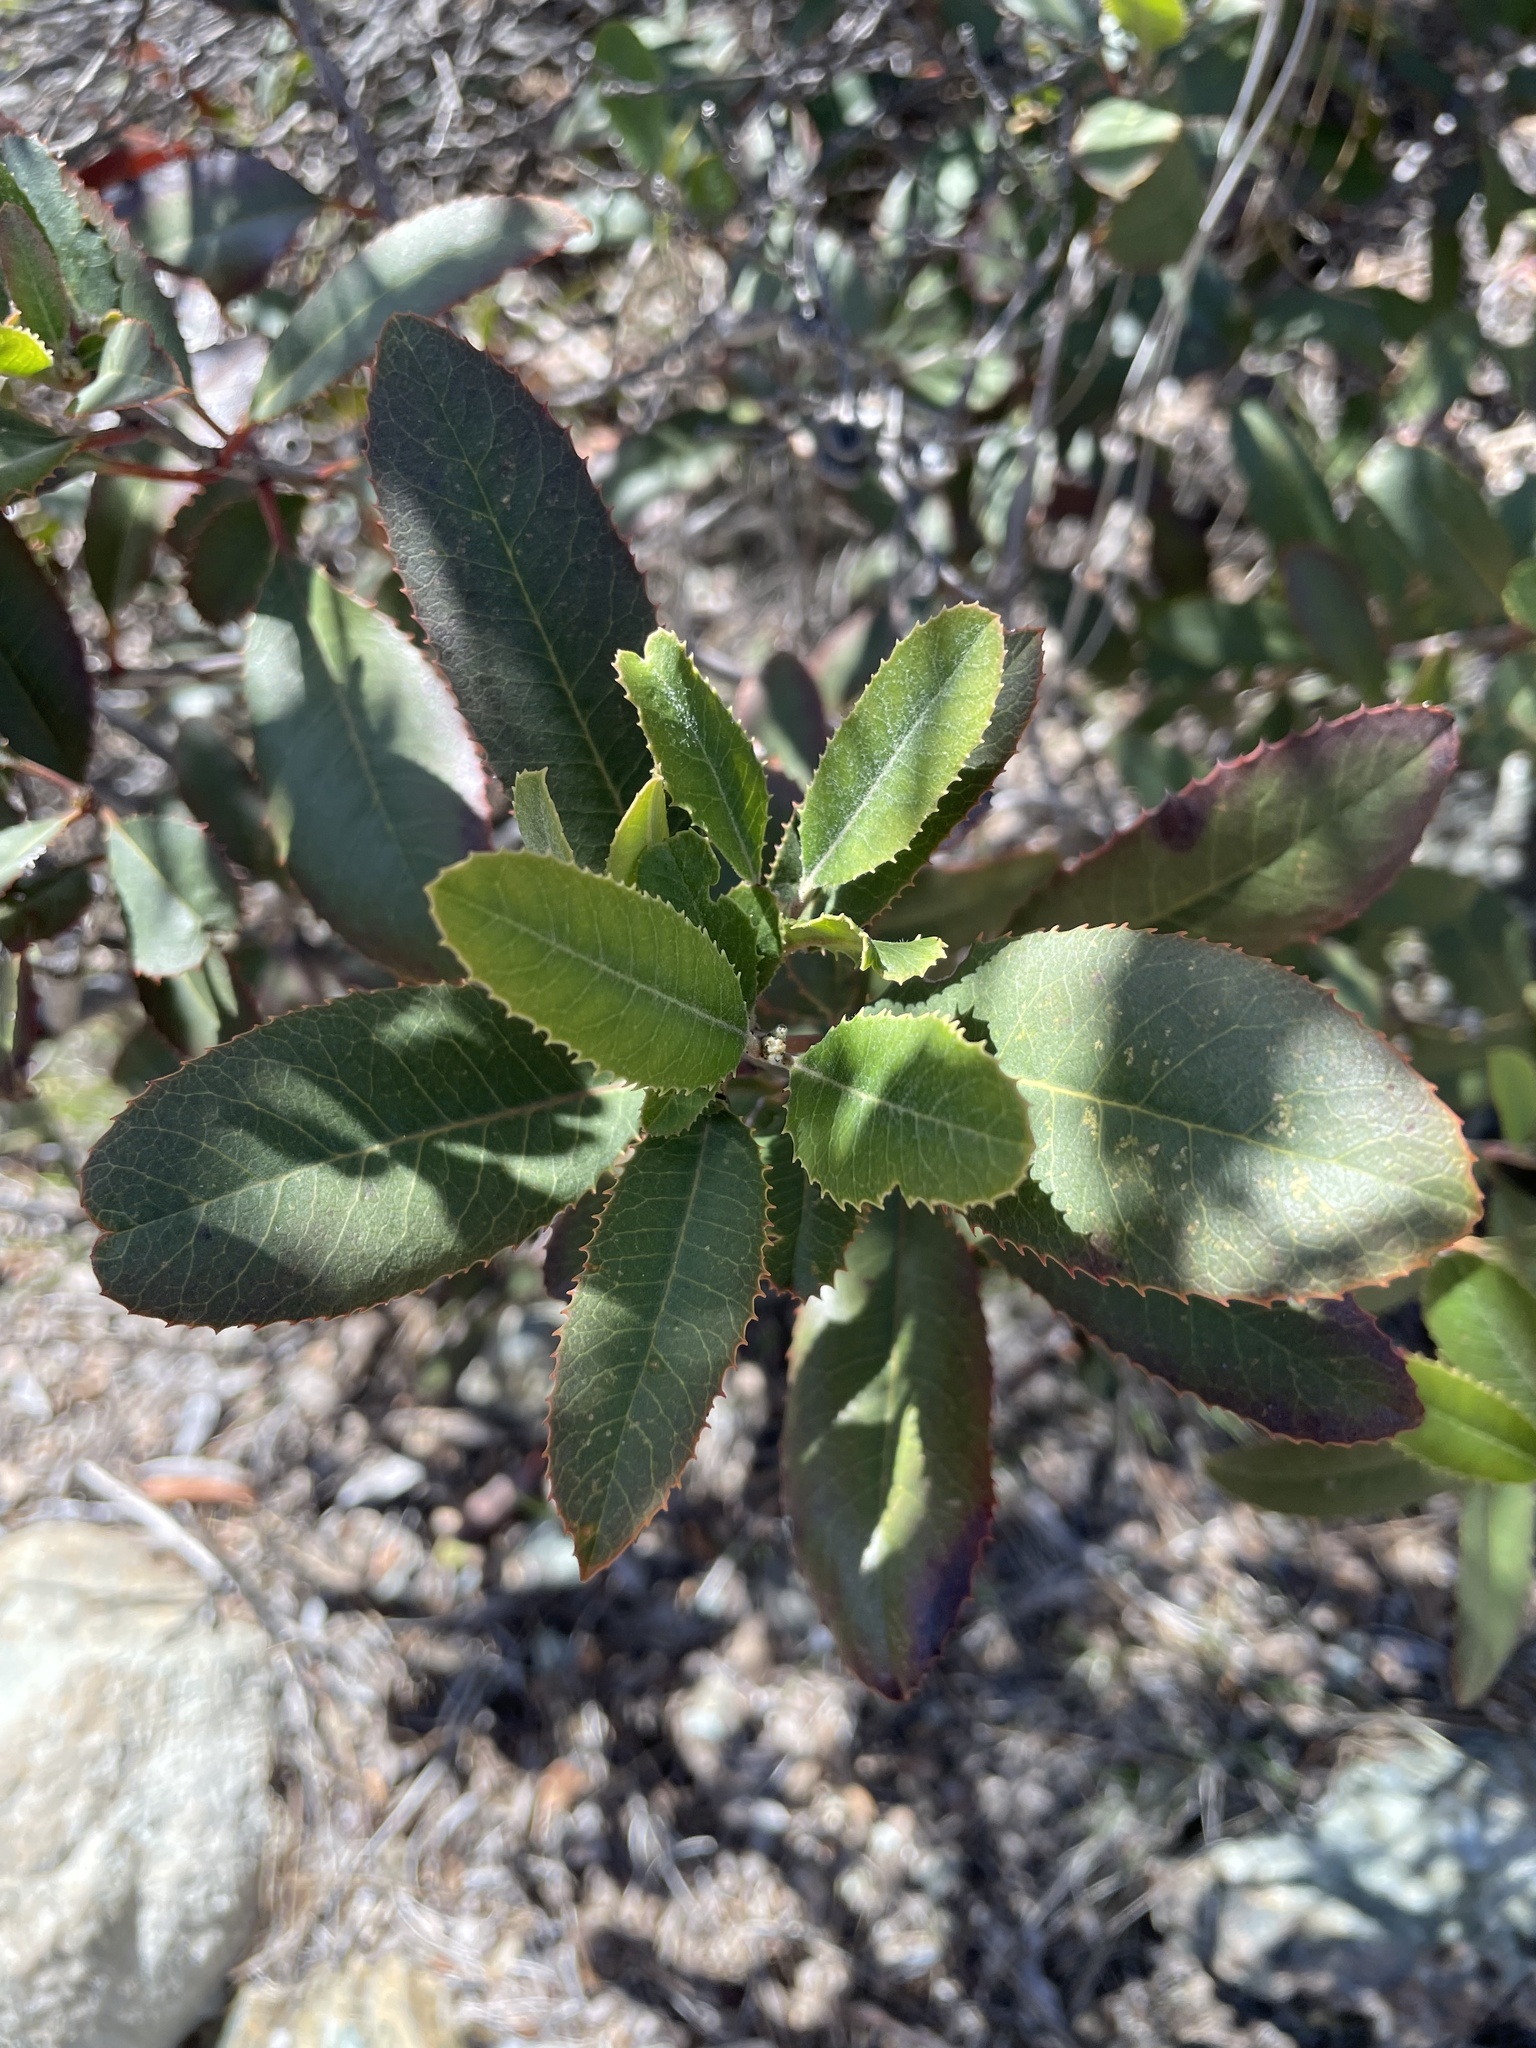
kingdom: Plantae
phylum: Tracheophyta
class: Magnoliopsida
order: Rosales
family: Rosaceae
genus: Heteromeles
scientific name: Heteromeles arbutifolia
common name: California-holly
